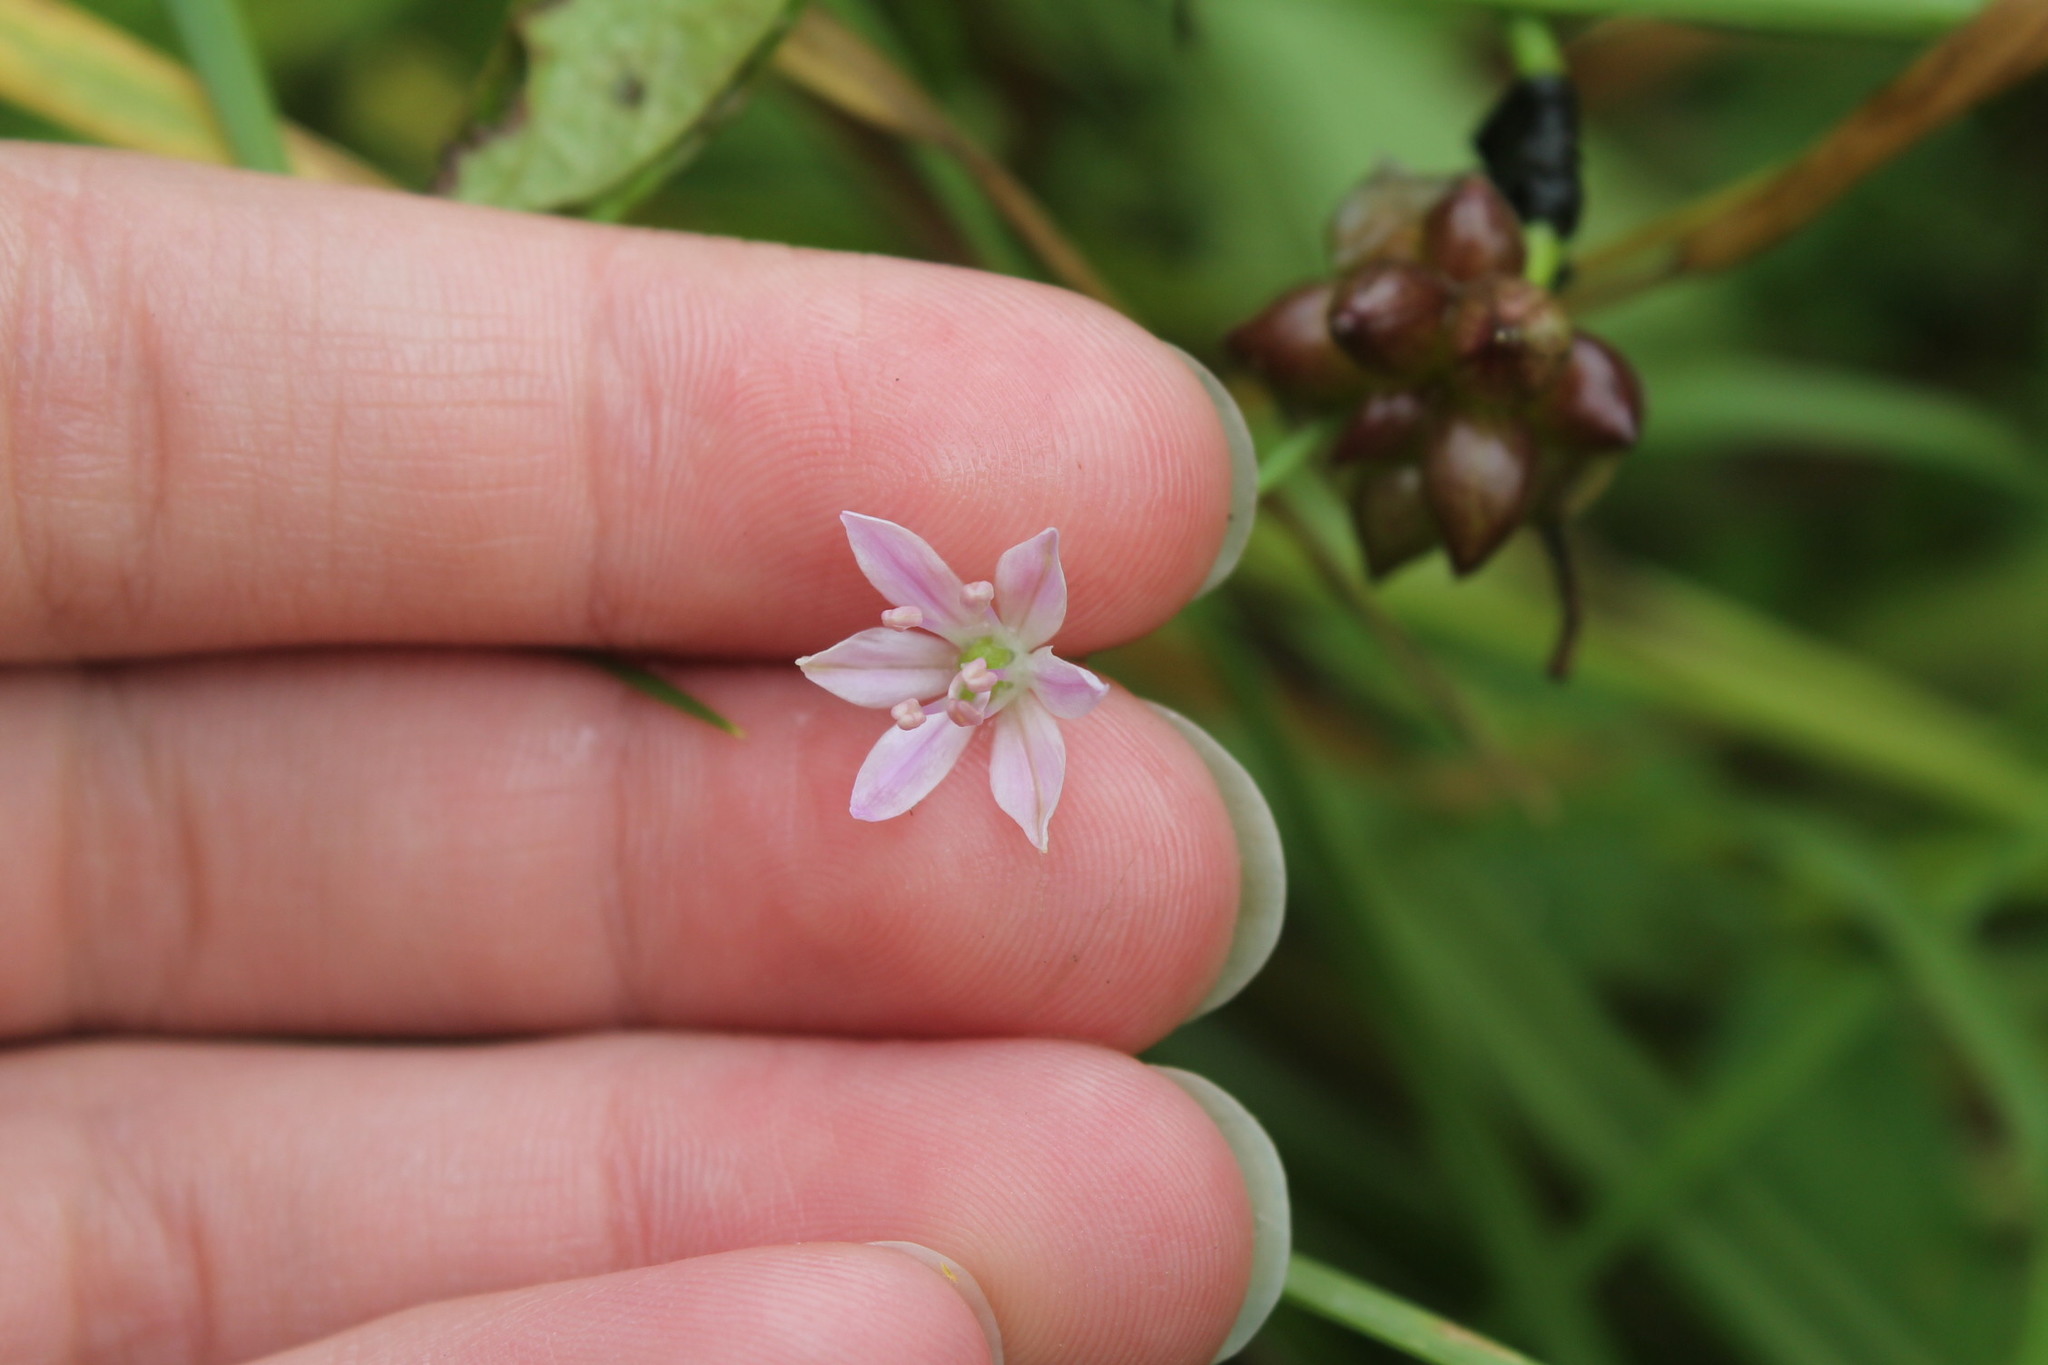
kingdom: Plantae
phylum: Tracheophyta
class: Liliopsida
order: Asparagales
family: Amaryllidaceae
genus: Allium
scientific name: Allium canadense
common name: Meadow garlic
